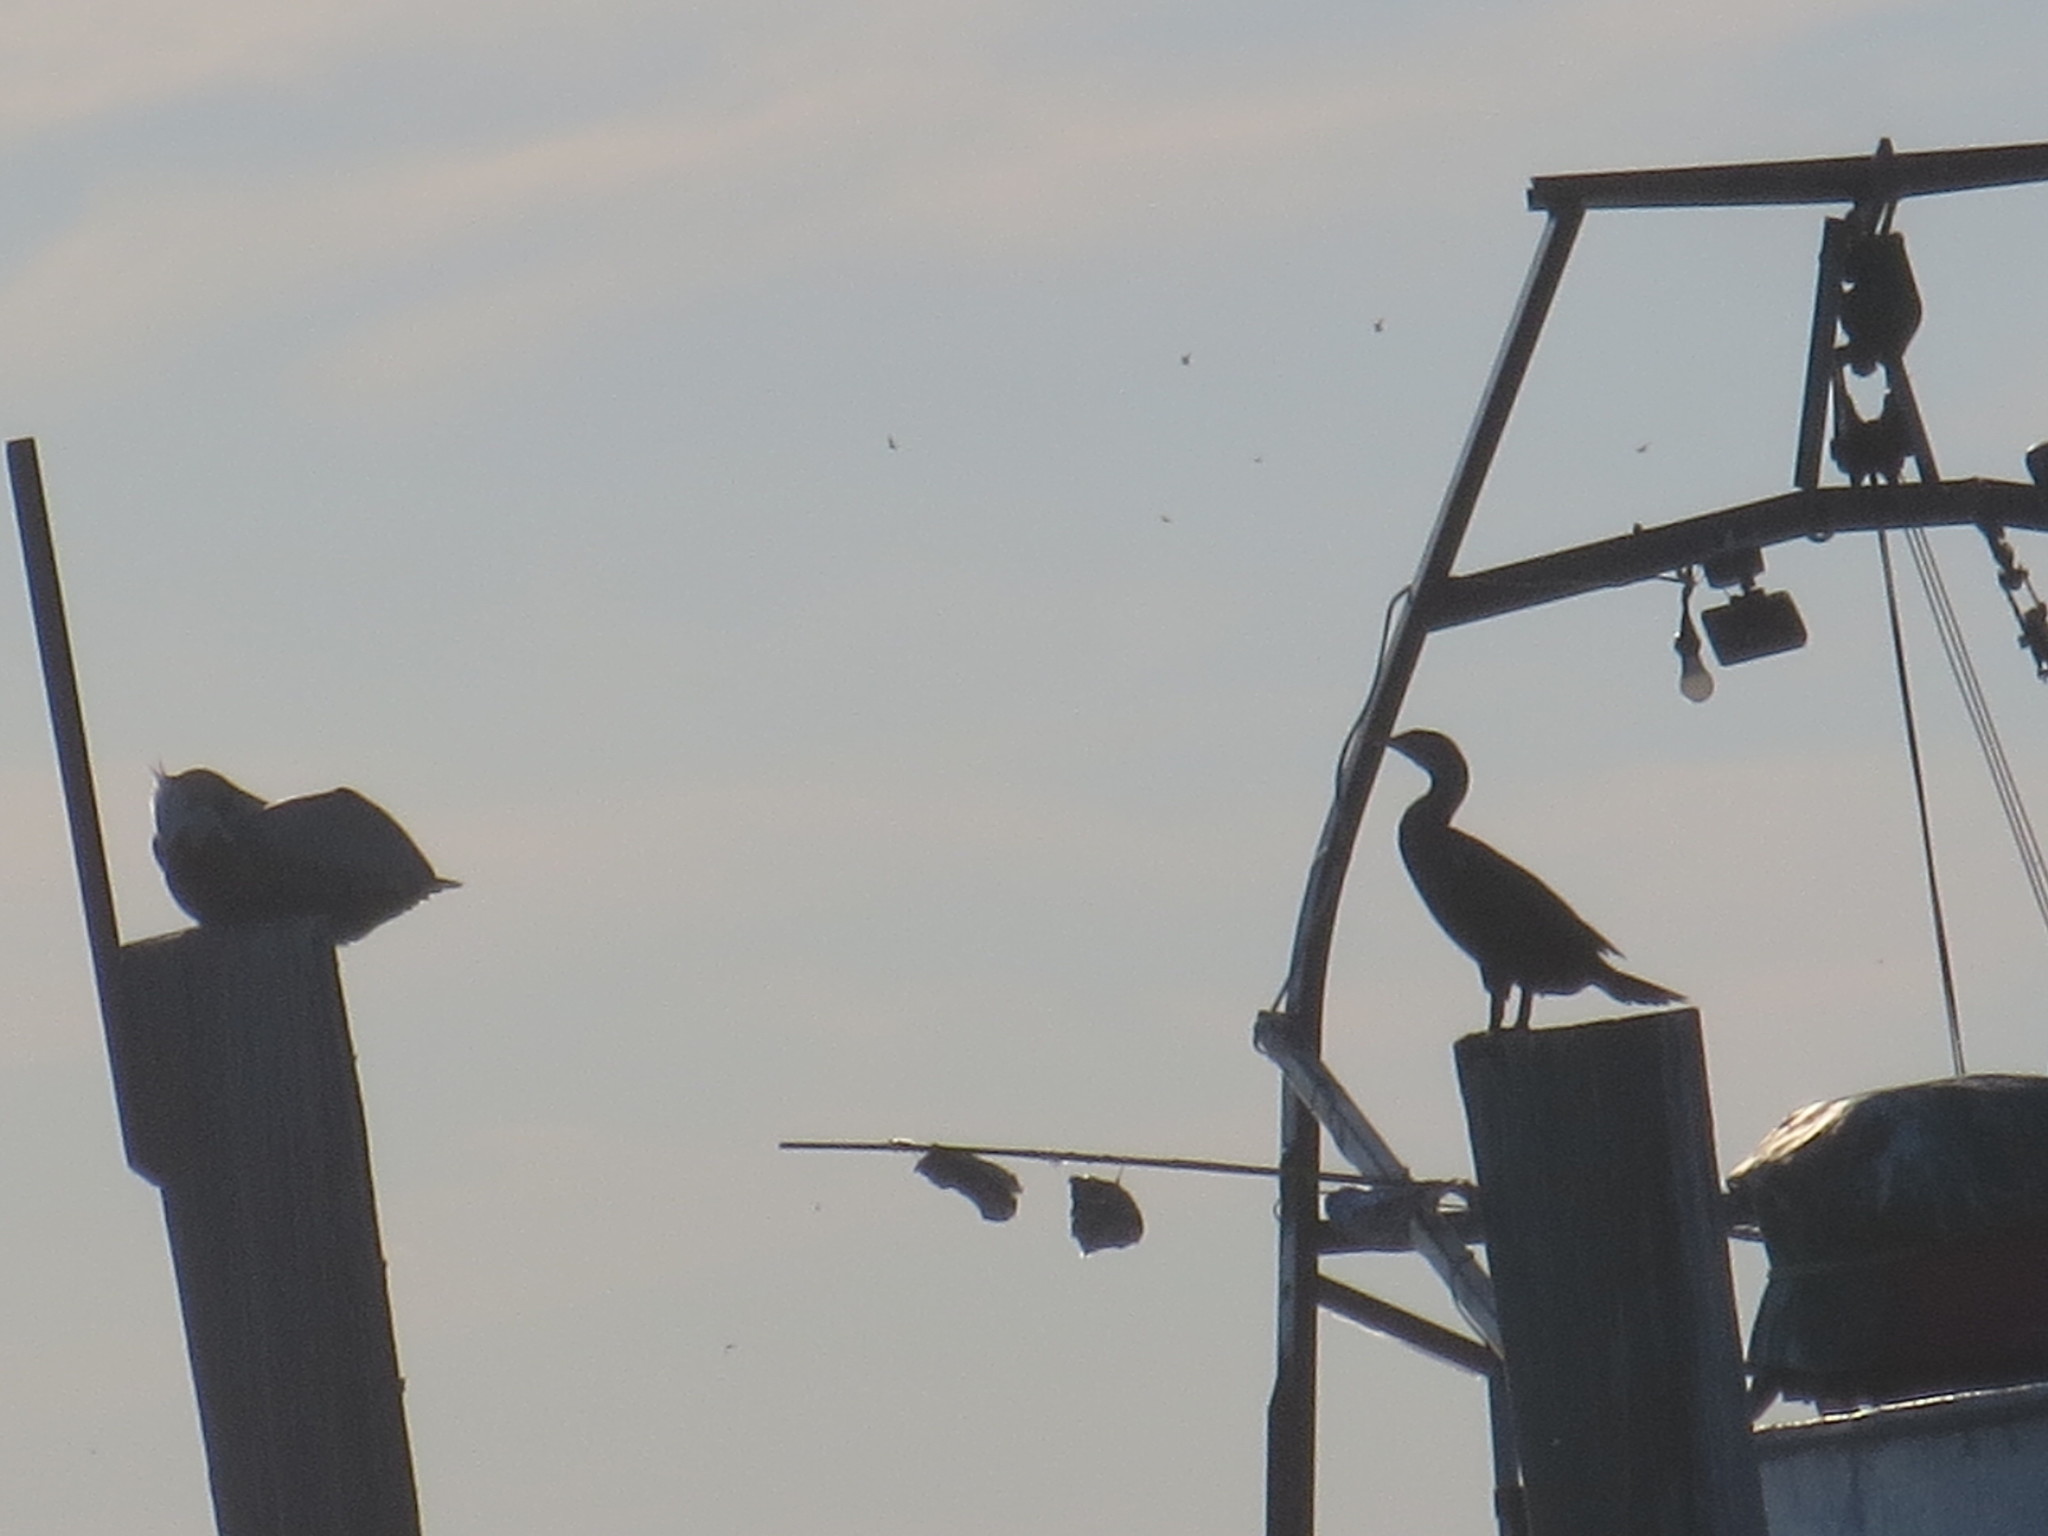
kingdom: Animalia
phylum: Chordata
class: Aves
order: Suliformes
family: Phalacrocoracidae
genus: Phalacrocorax
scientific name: Phalacrocorax auritus
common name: Double-crested cormorant
